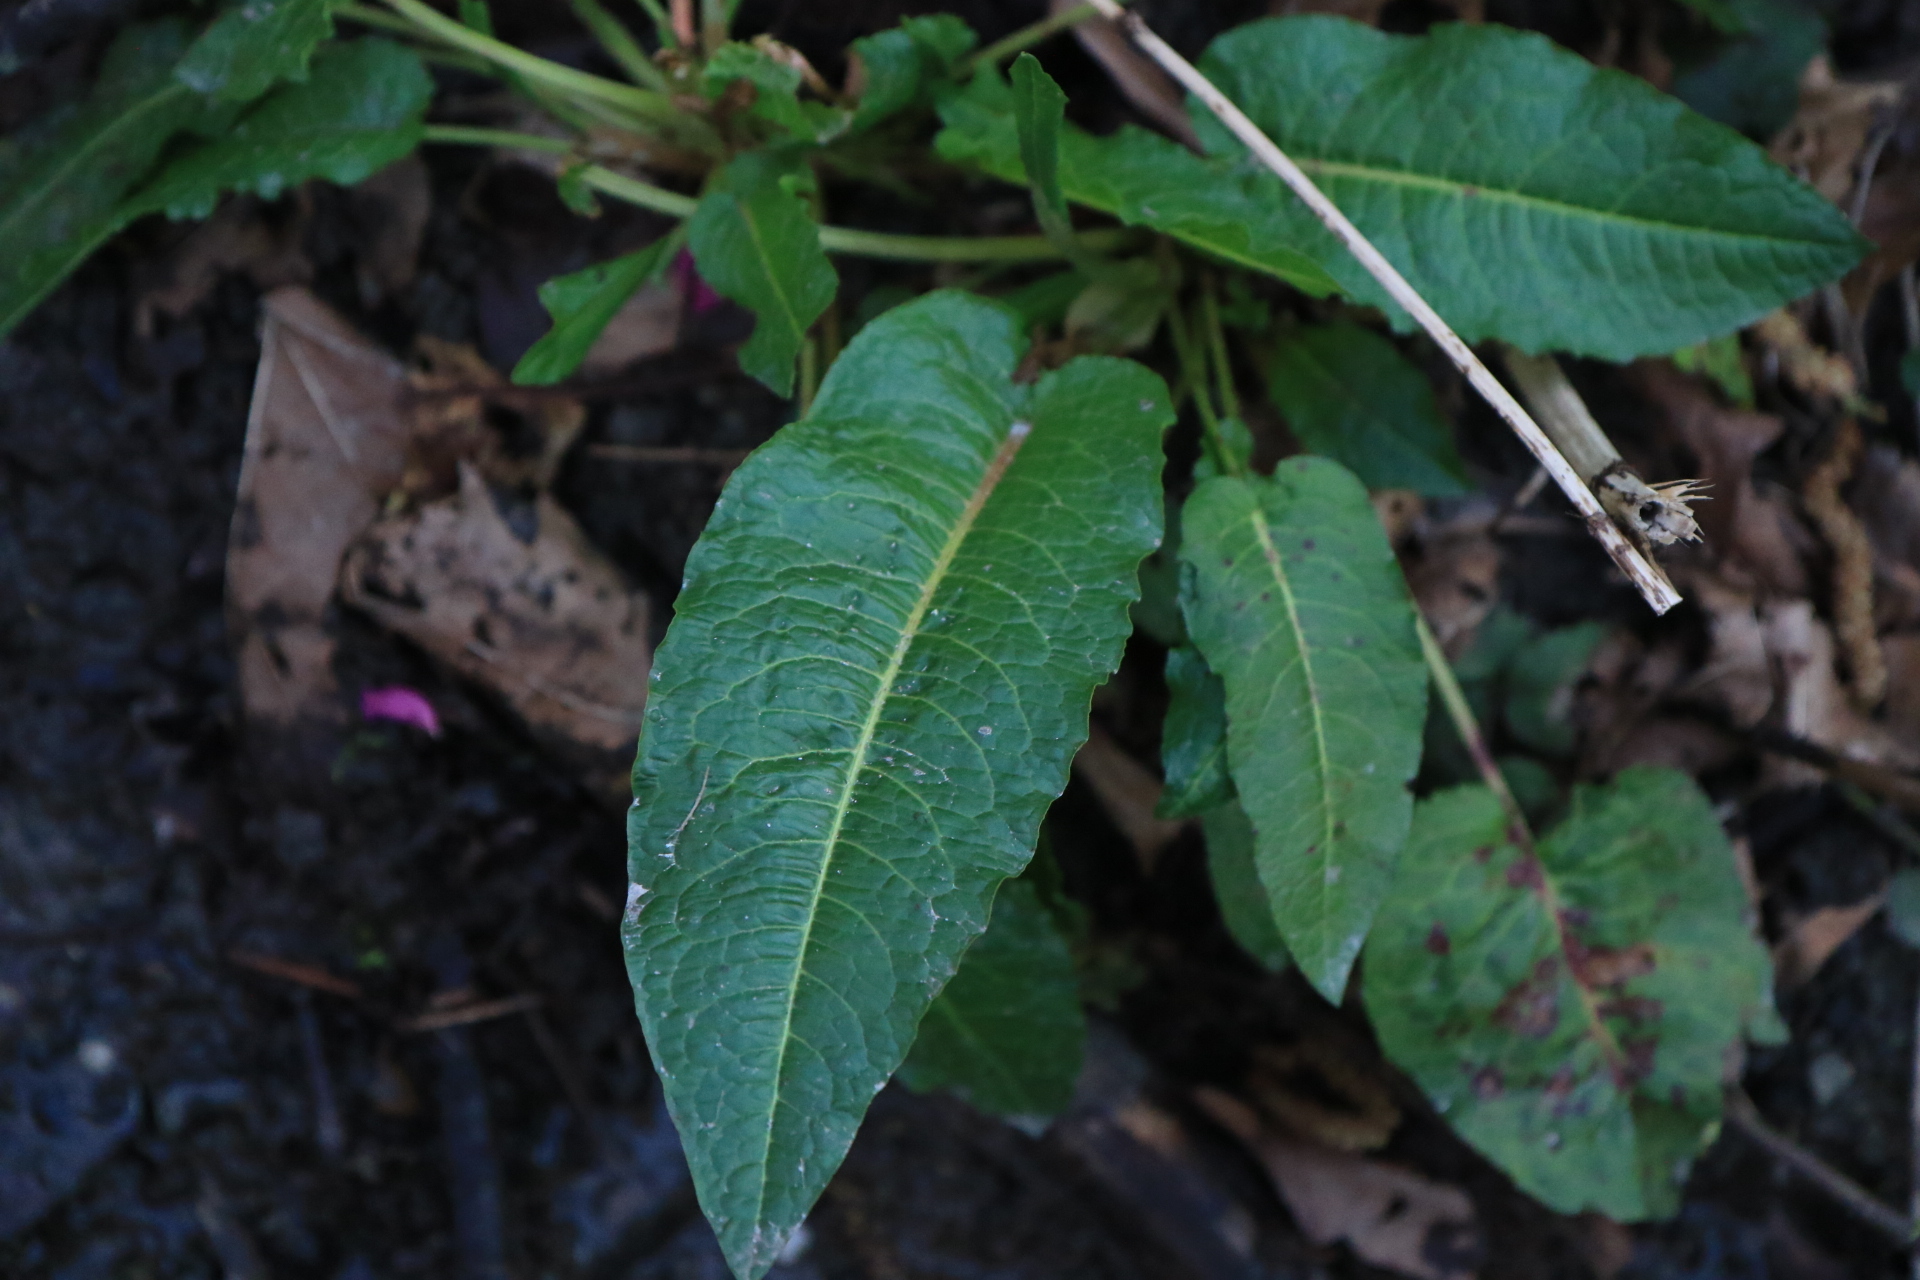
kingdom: Plantae
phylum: Tracheophyta
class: Magnoliopsida
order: Caryophyllales
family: Polygonaceae
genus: Rumex
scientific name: Rumex obtusifolius
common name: Bitter dock
